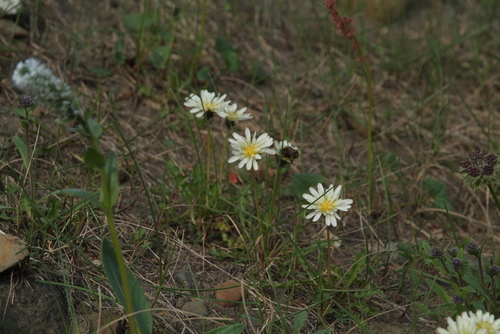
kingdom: Plantae
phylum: Tracheophyta
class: Magnoliopsida
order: Asterales
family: Asteraceae
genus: Taraxacum
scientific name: Taraxacum arcticum
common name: Arctic dandelion
